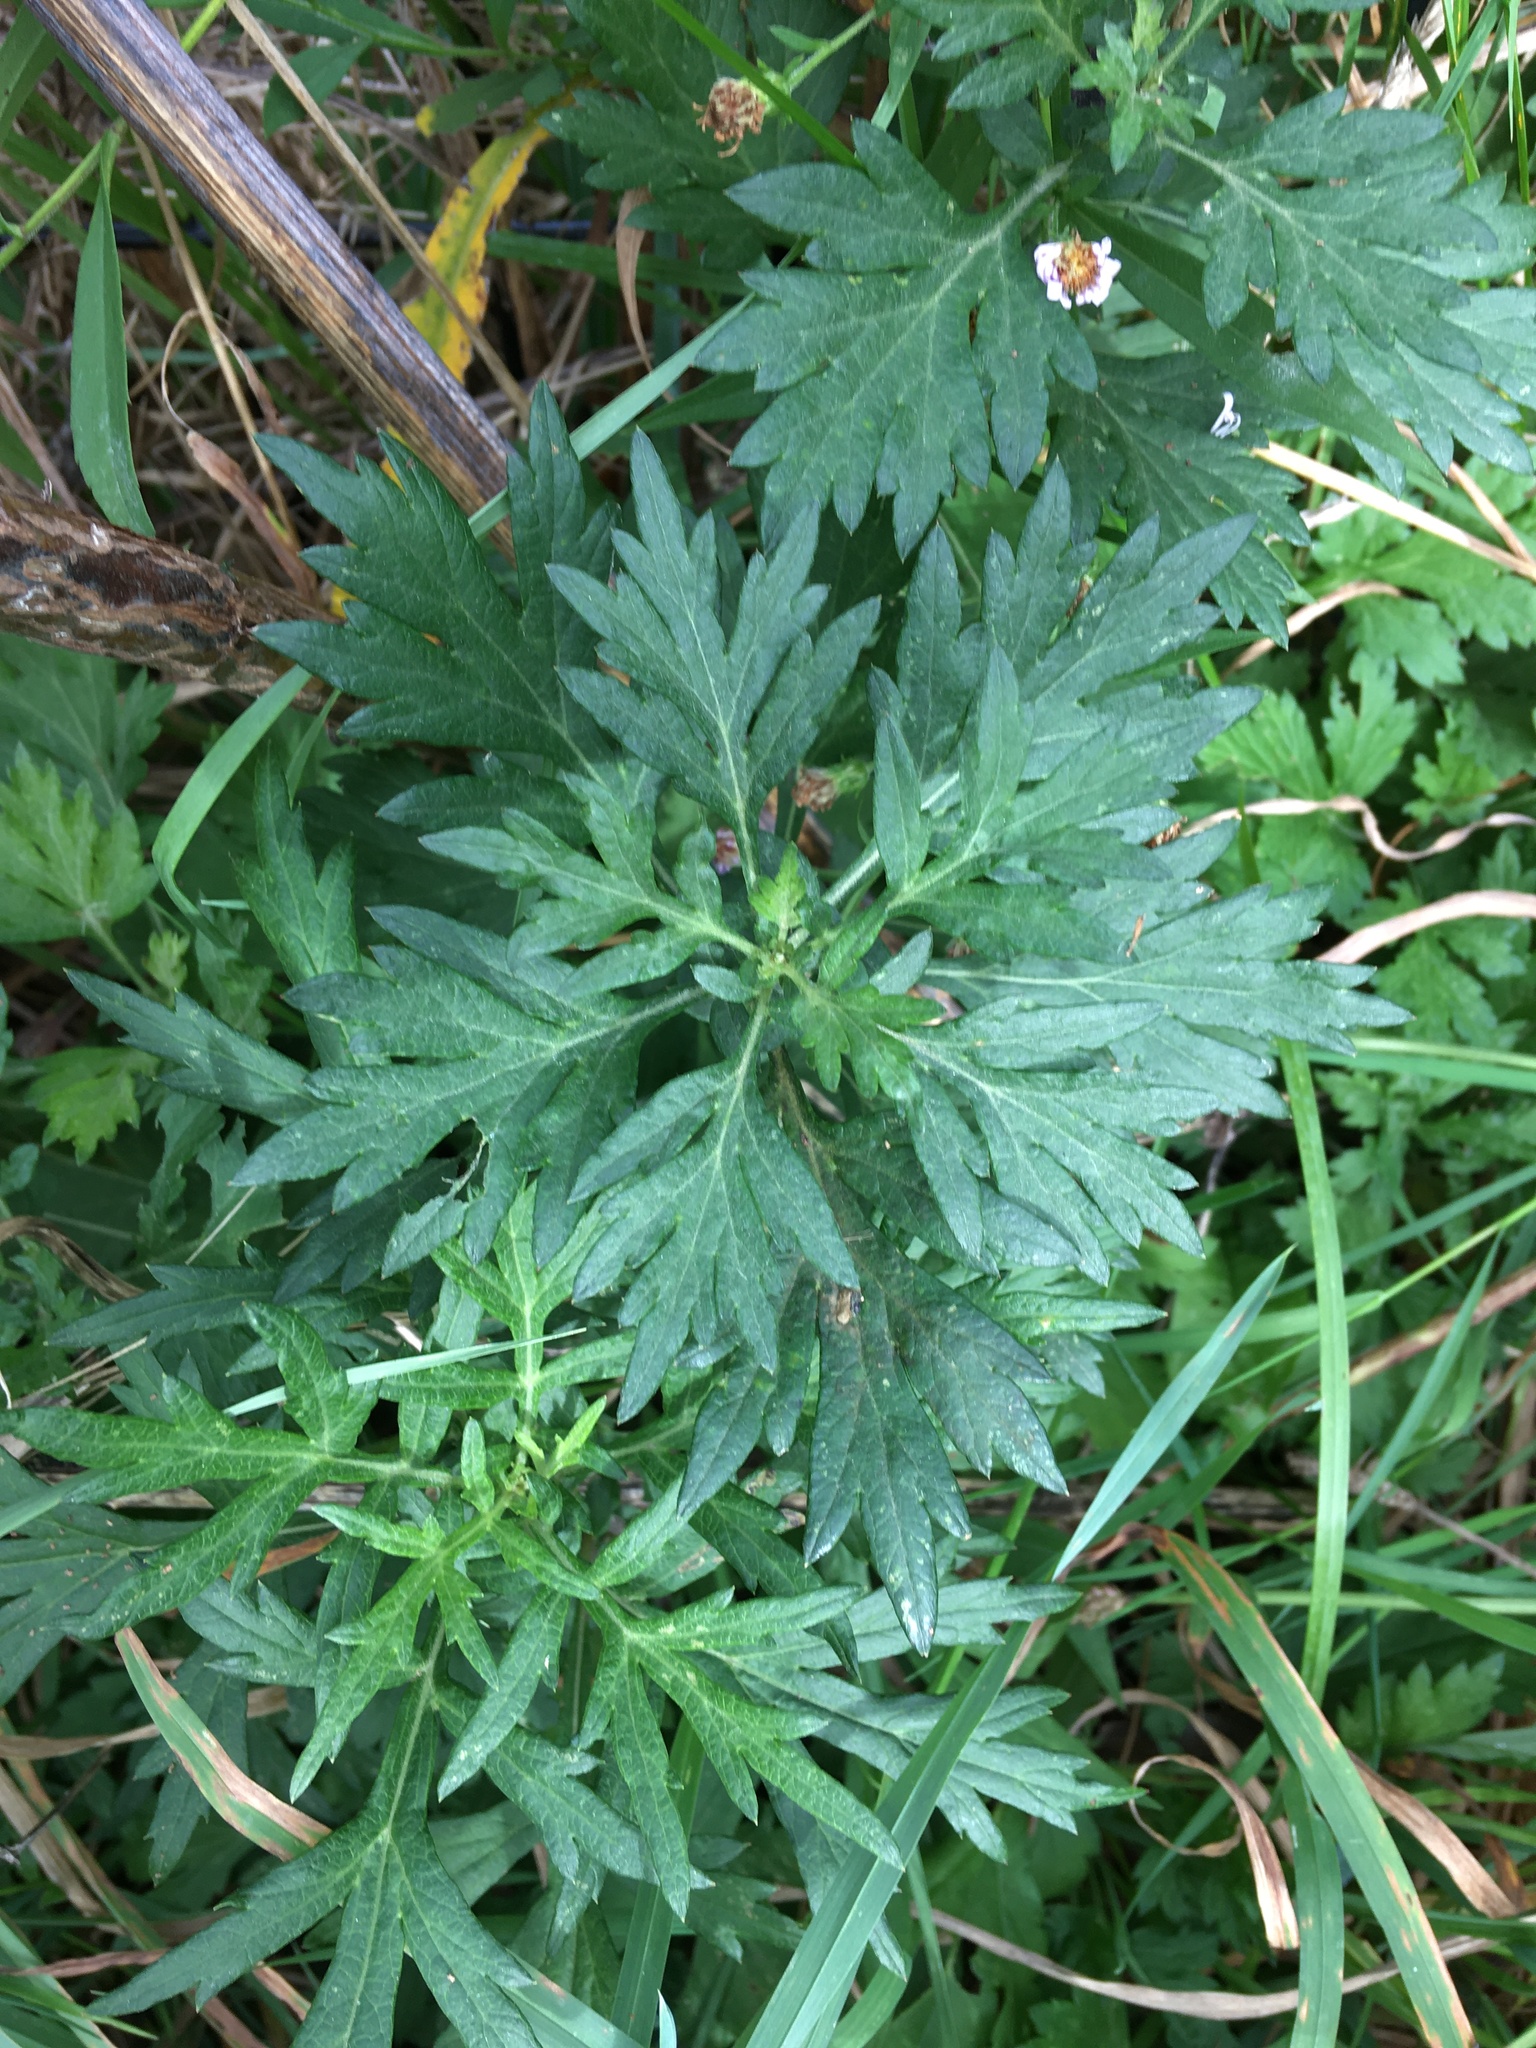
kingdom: Plantae
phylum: Tracheophyta
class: Magnoliopsida
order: Asterales
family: Asteraceae
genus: Artemisia
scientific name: Artemisia vulgaris
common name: Mugwort
